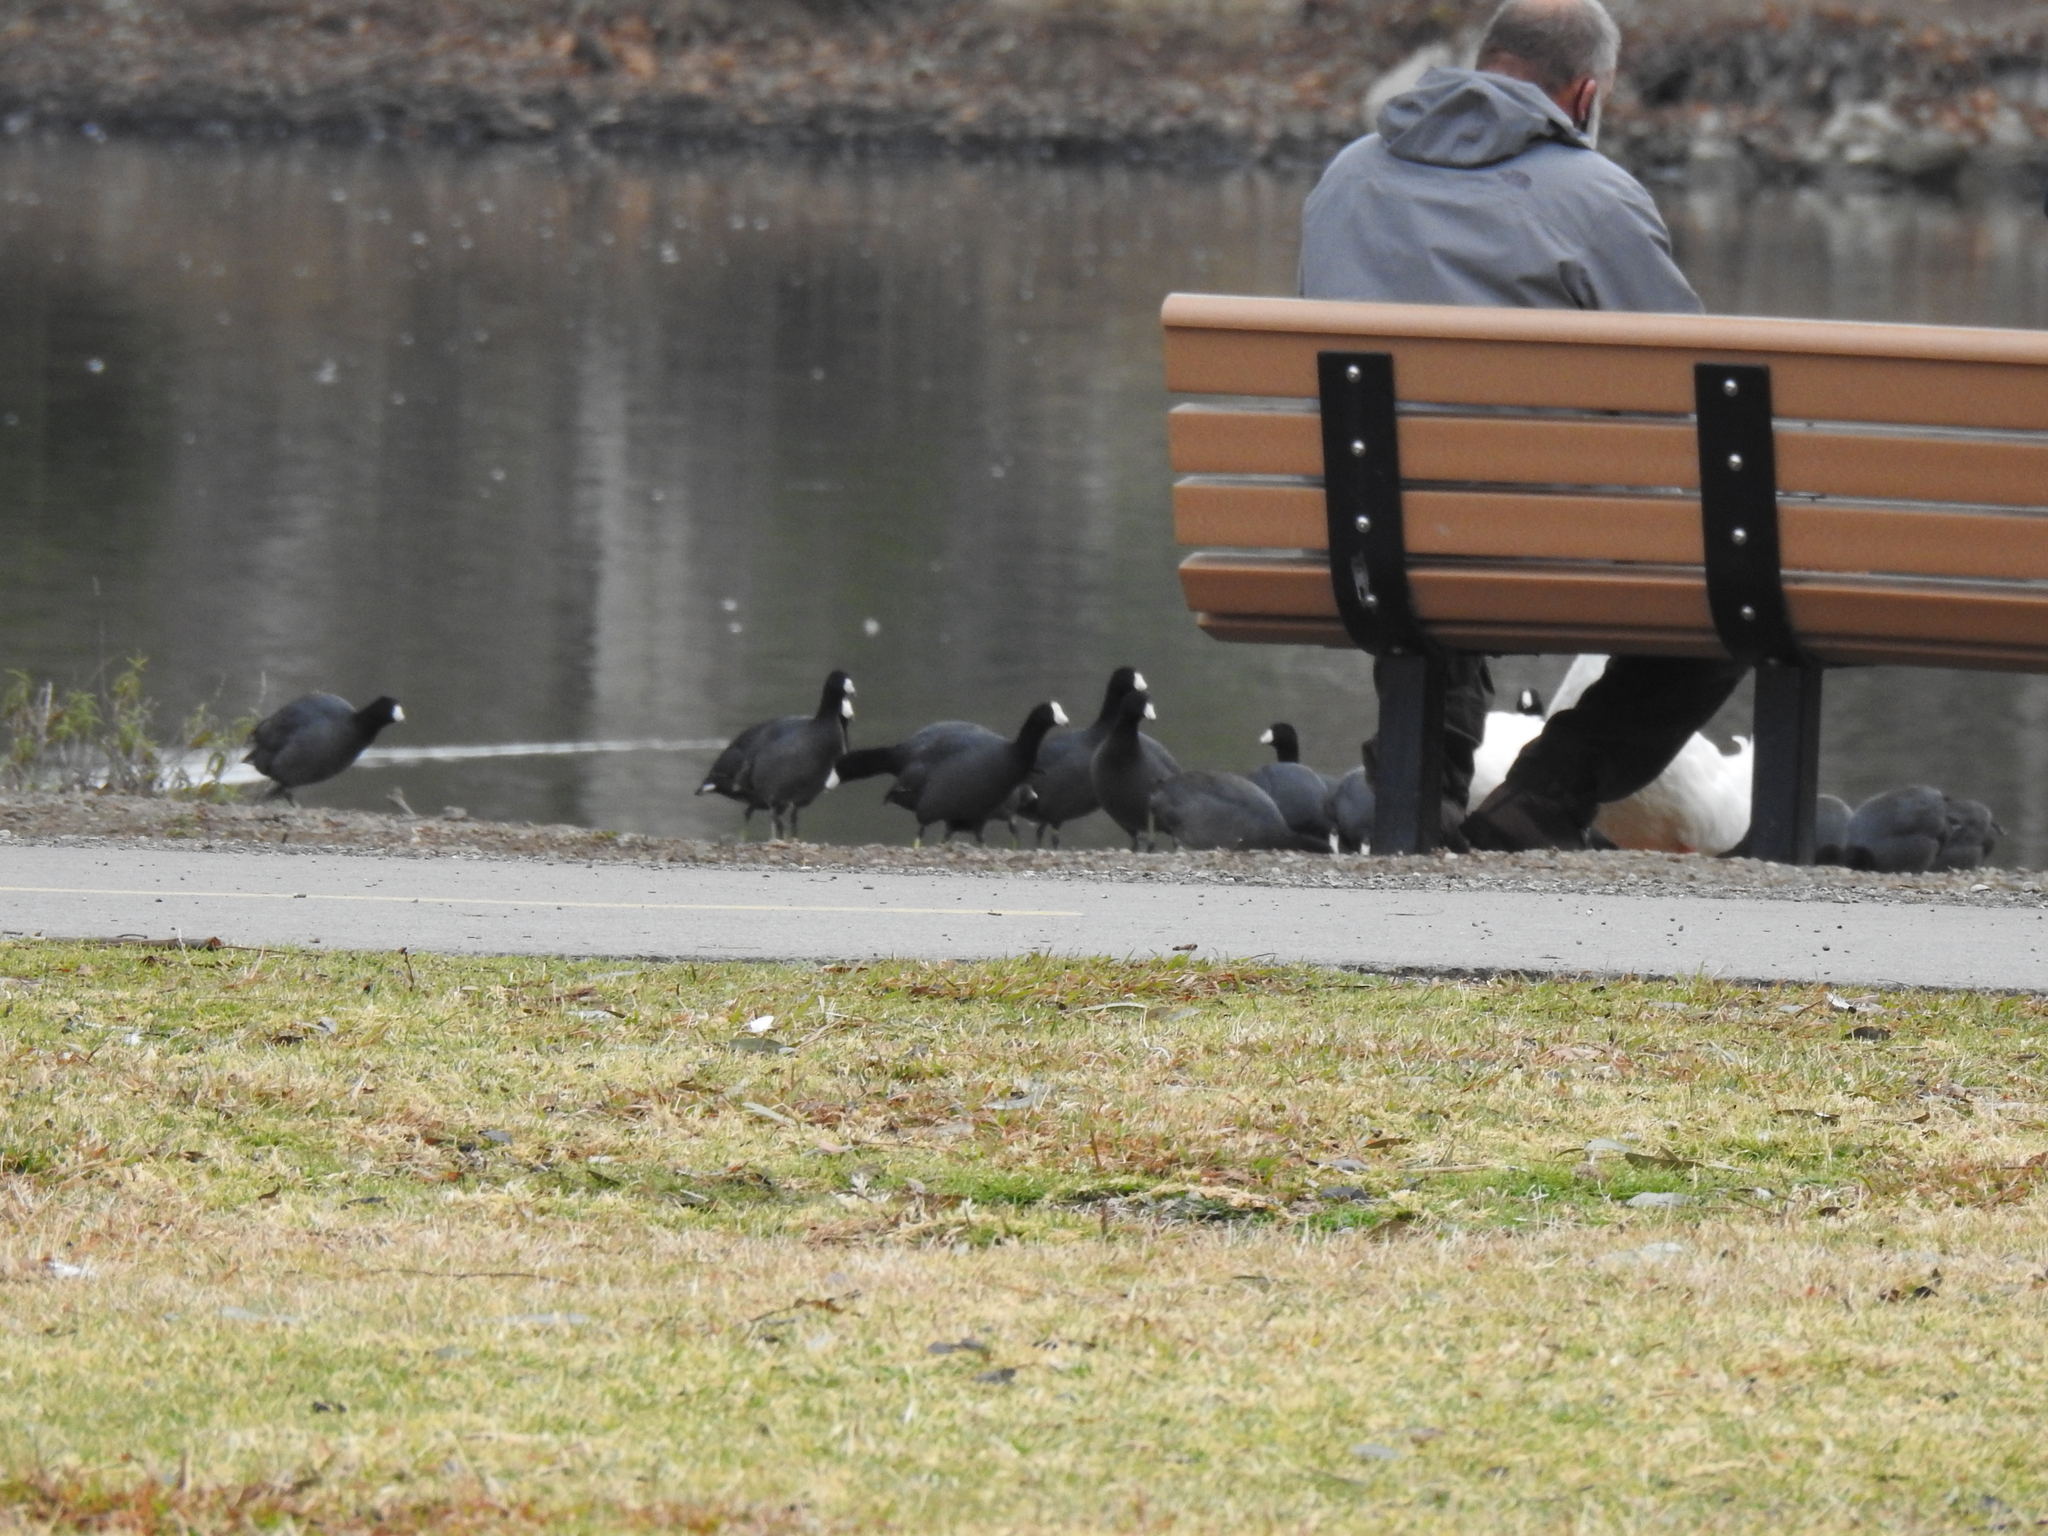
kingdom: Animalia
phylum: Chordata
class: Aves
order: Gruiformes
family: Rallidae
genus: Fulica
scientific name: Fulica americana
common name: American coot
